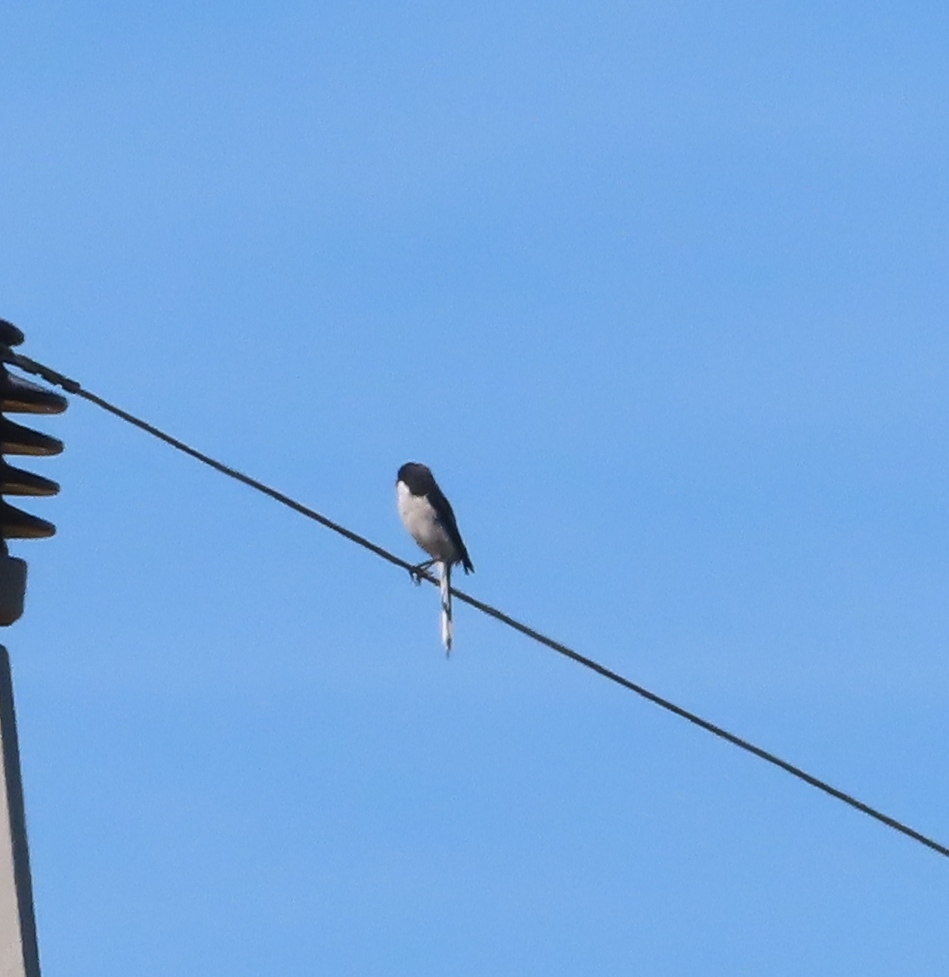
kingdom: Animalia
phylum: Chordata
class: Aves
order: Passeriformes
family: Laniidae
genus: Lanius
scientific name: Lanius collaris
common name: Southern fiscal
